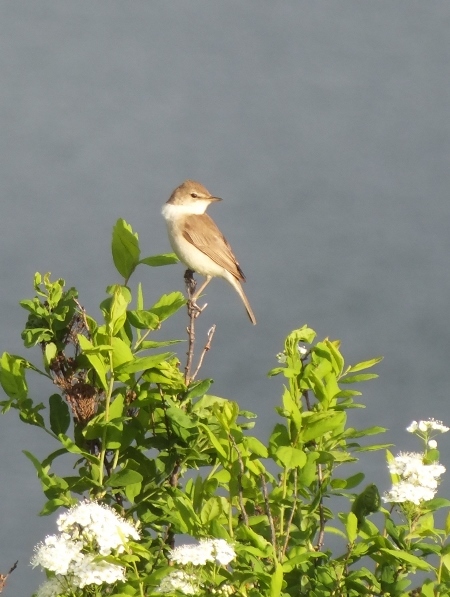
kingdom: Animalia
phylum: Chordata
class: Aves
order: Passeriformes
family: Sylviidae
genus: Sylvia
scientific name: Sylvia communis
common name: Common whitethroat
